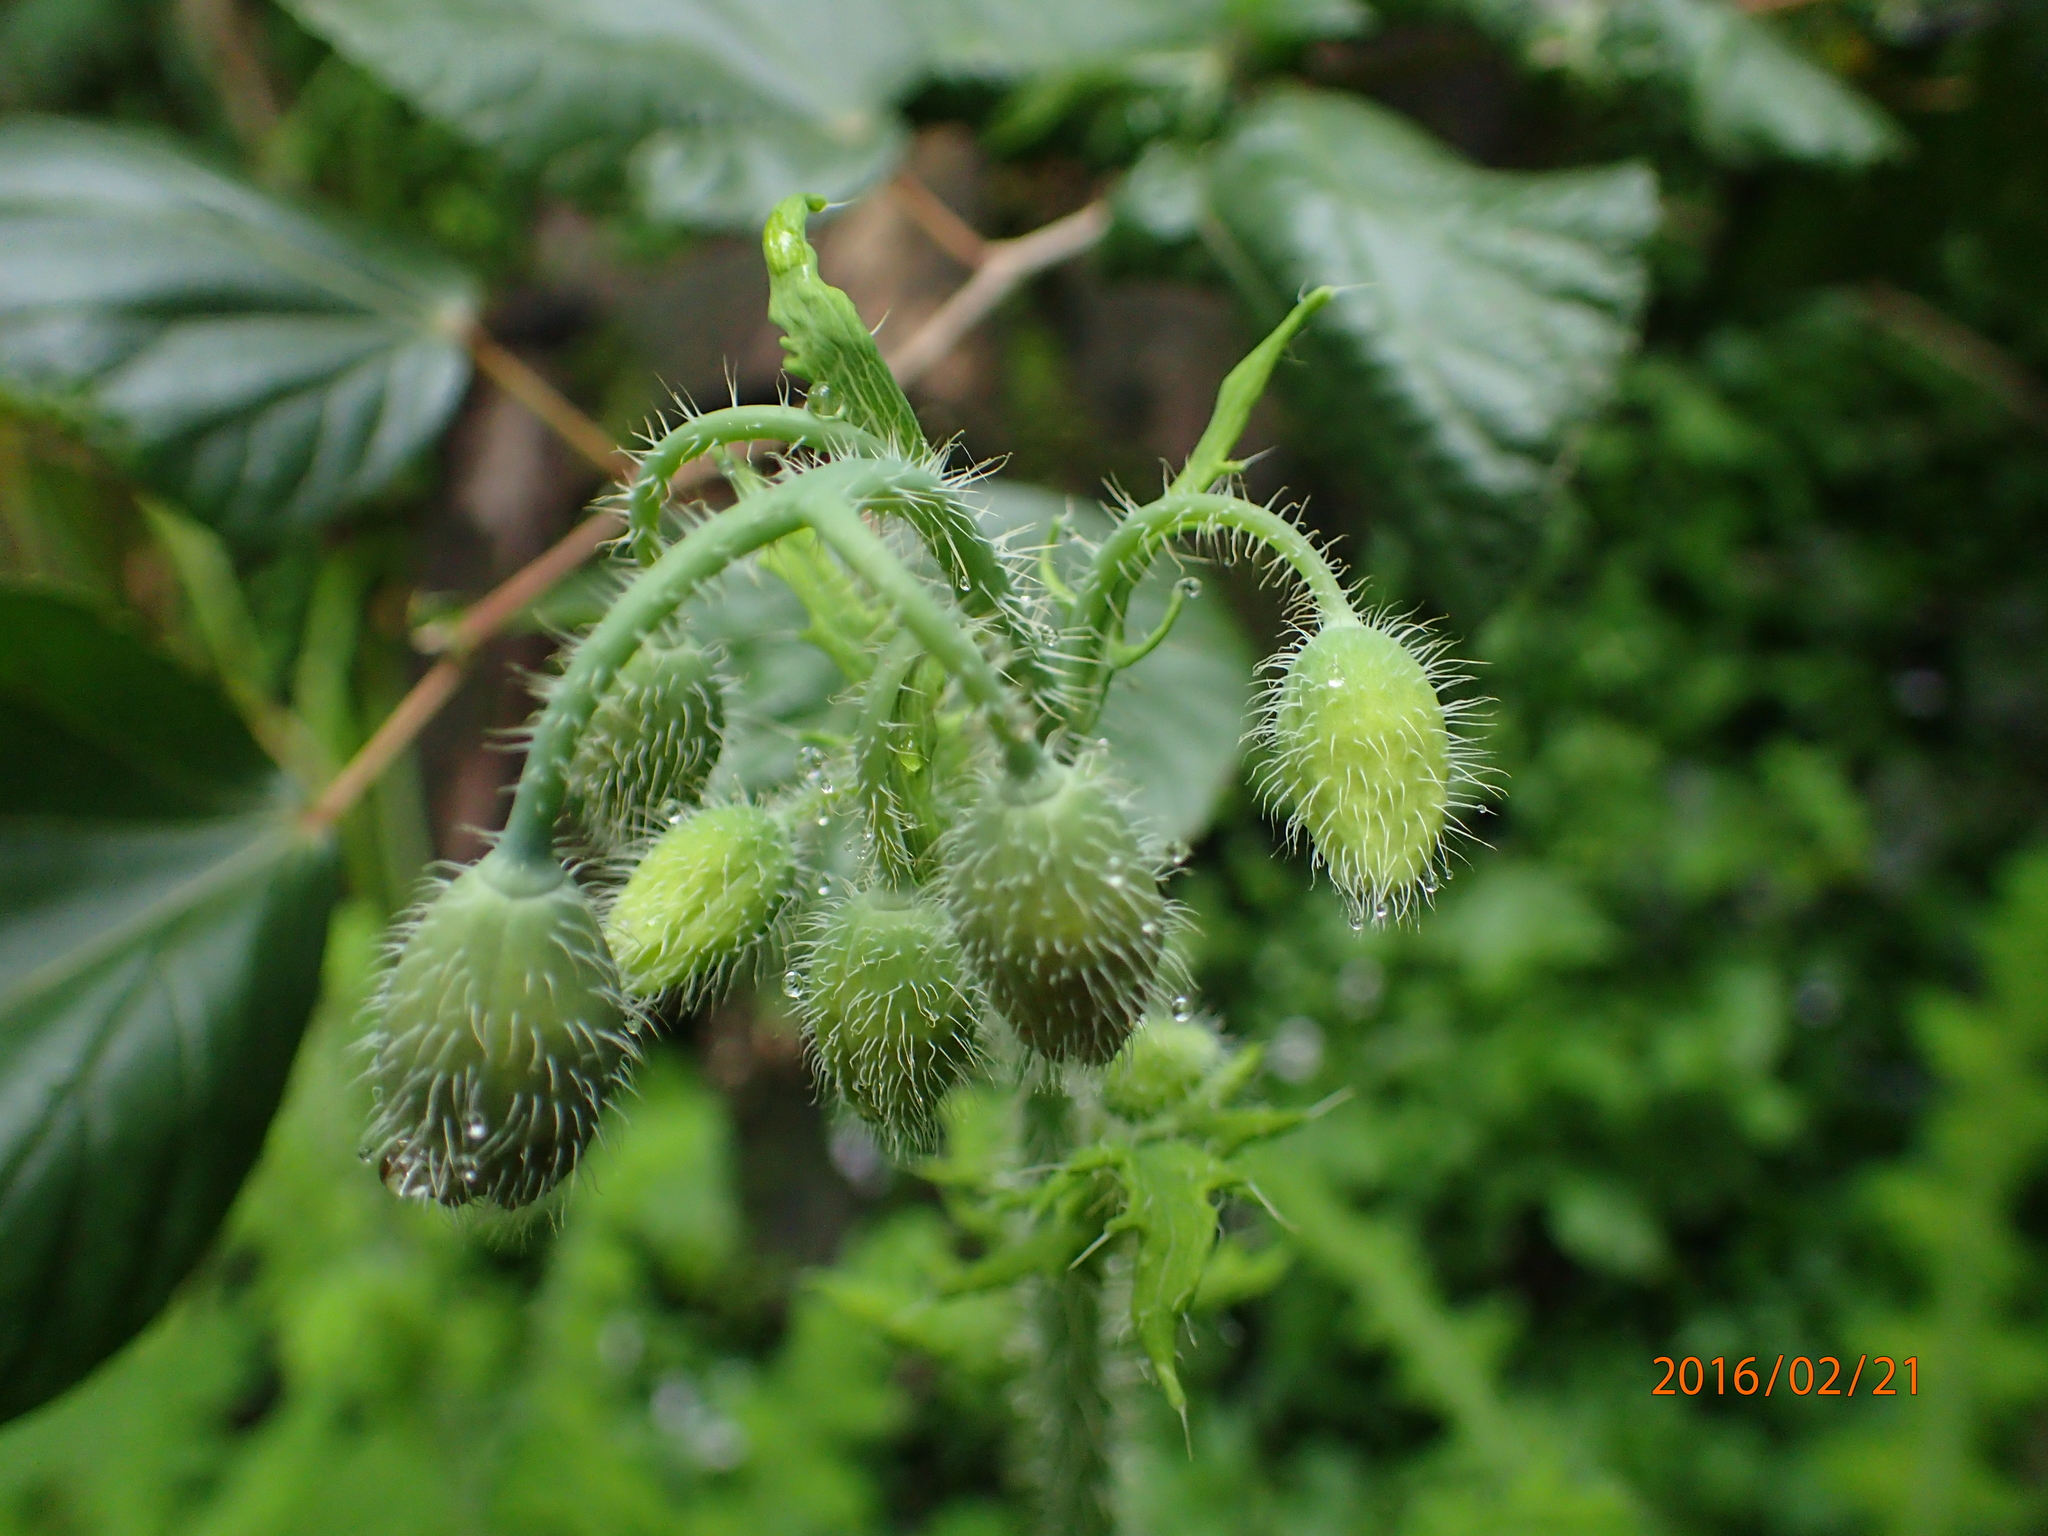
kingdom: Plantae
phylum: Tracheophyta
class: Magnoliopsida
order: Ranunculales
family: Papaveraceae
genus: Papaver
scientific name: Papaver aculeatum
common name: Bristle poppy
